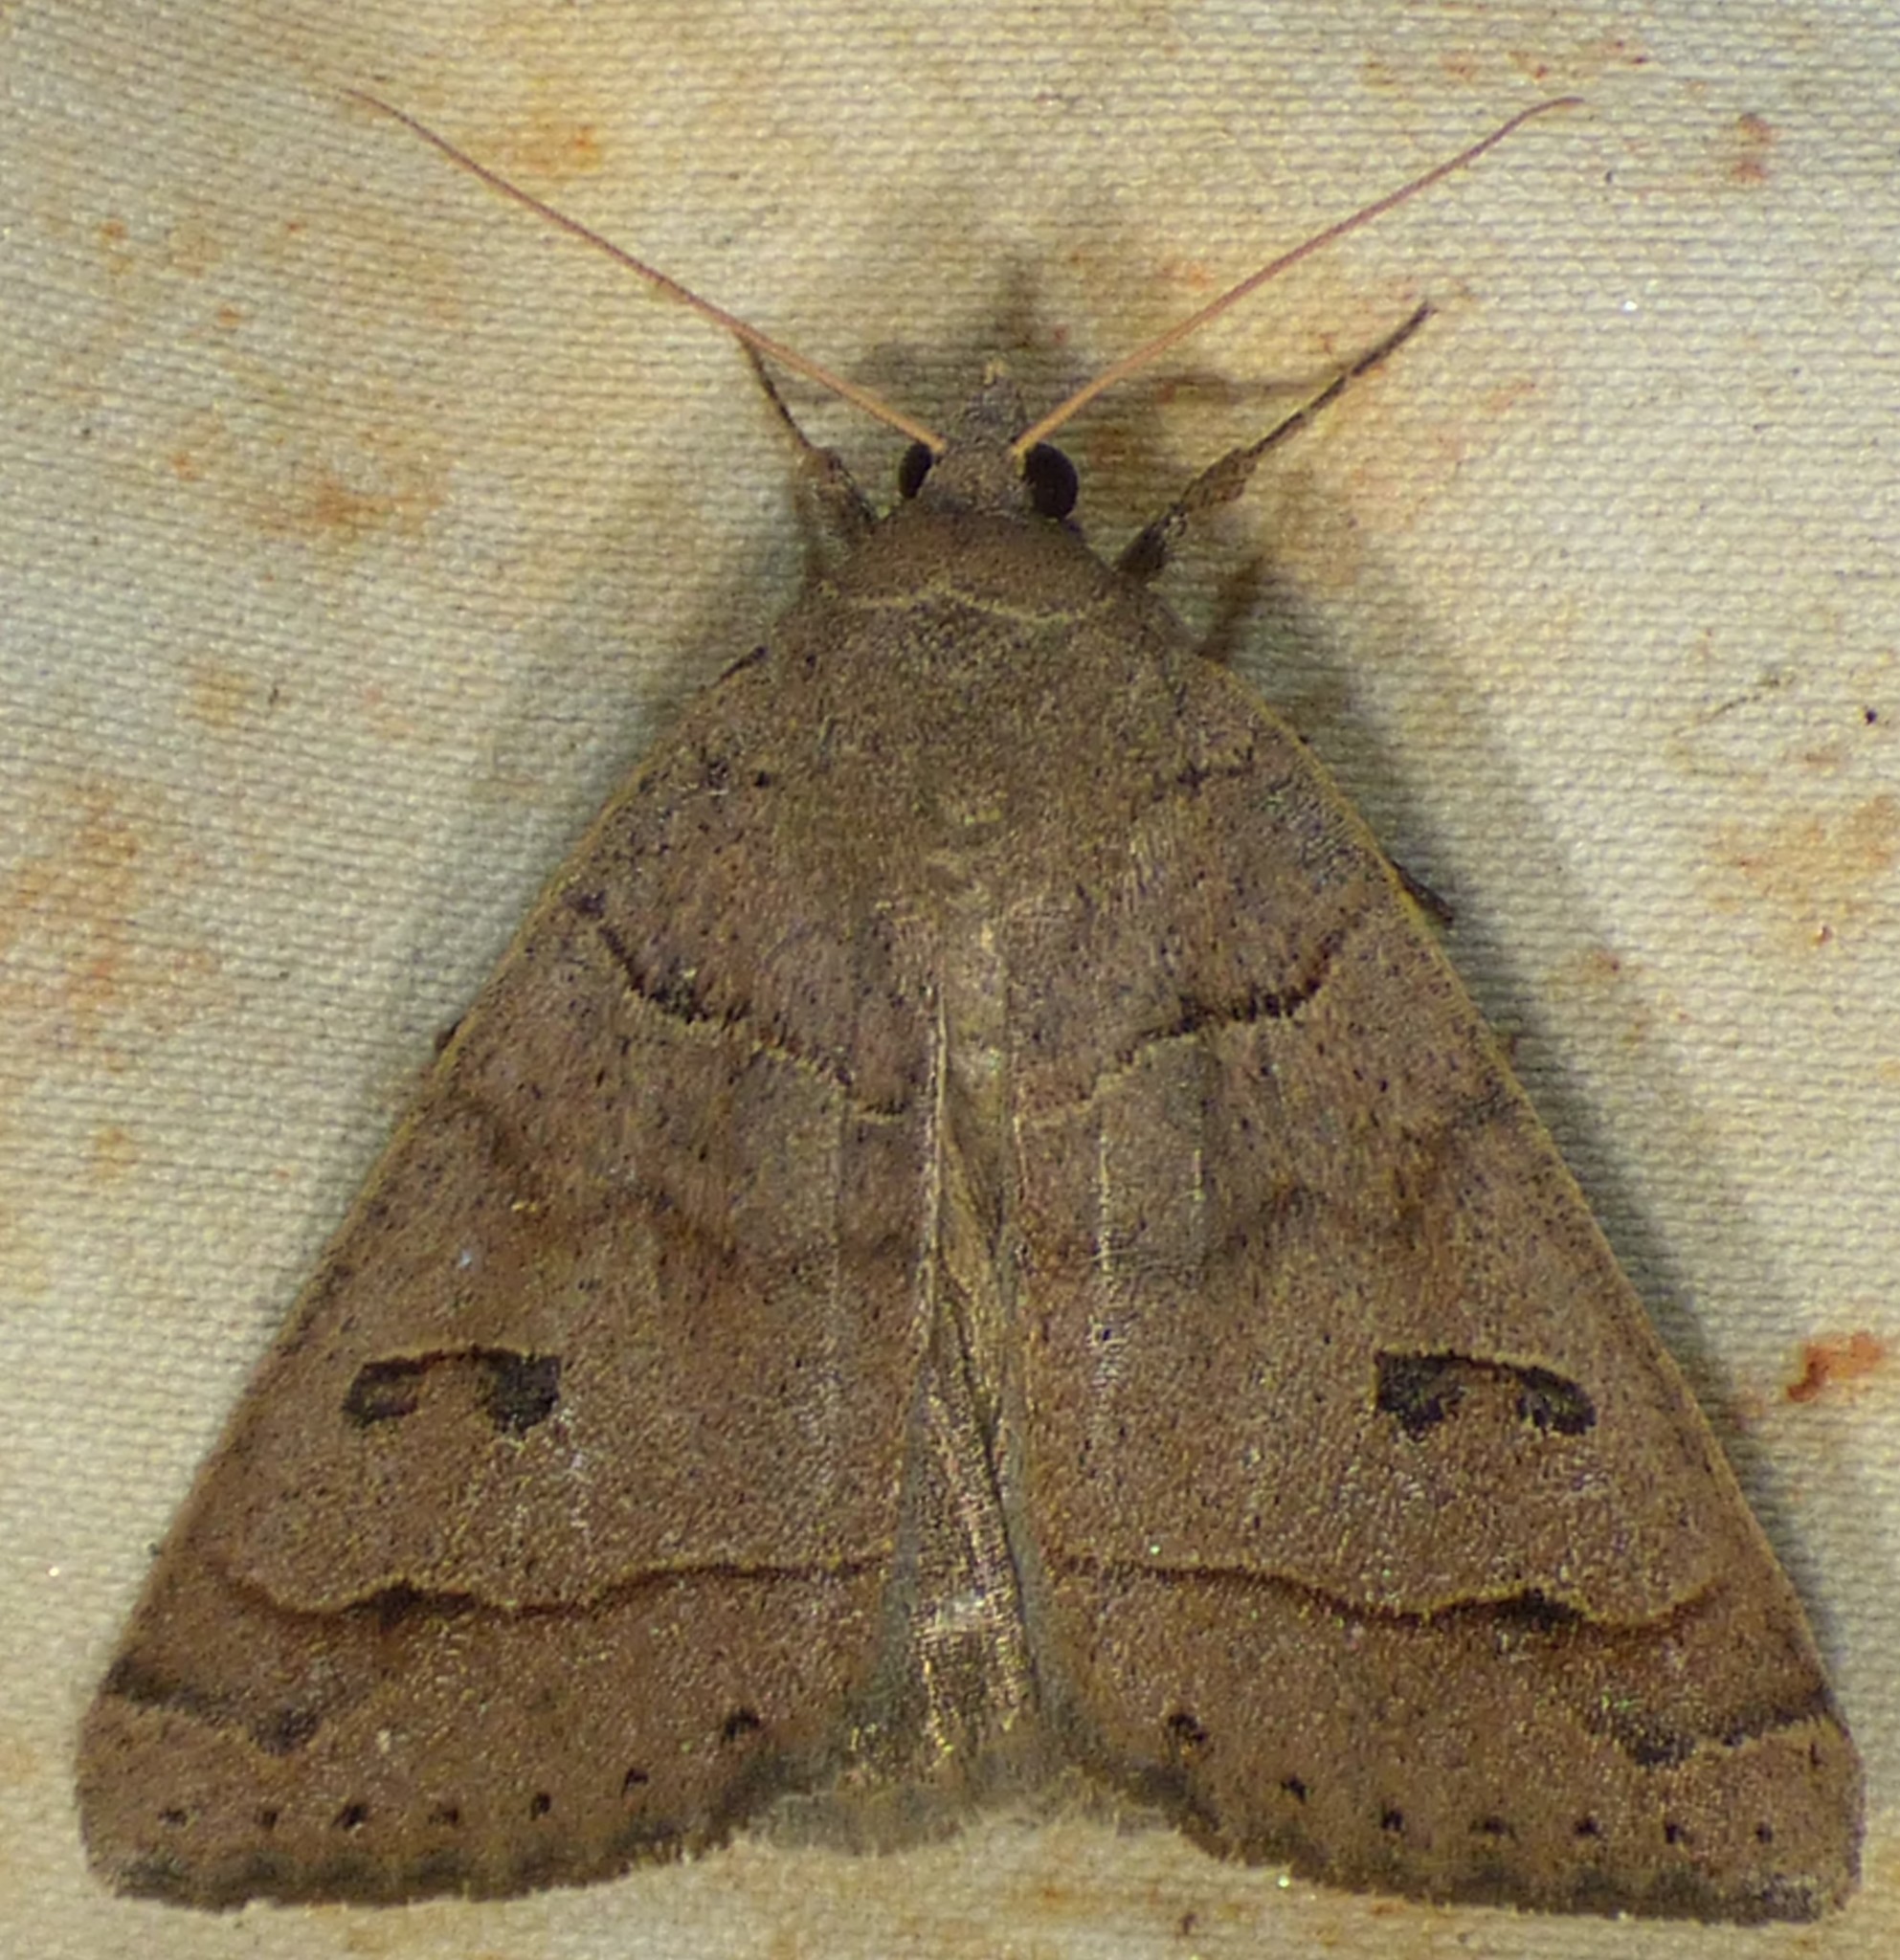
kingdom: Animalia
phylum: Arthropoda
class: Insecta
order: Lepidoptera
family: Erebidae
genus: Phoberia
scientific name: Phoberia atomaris
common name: Common oak moth
